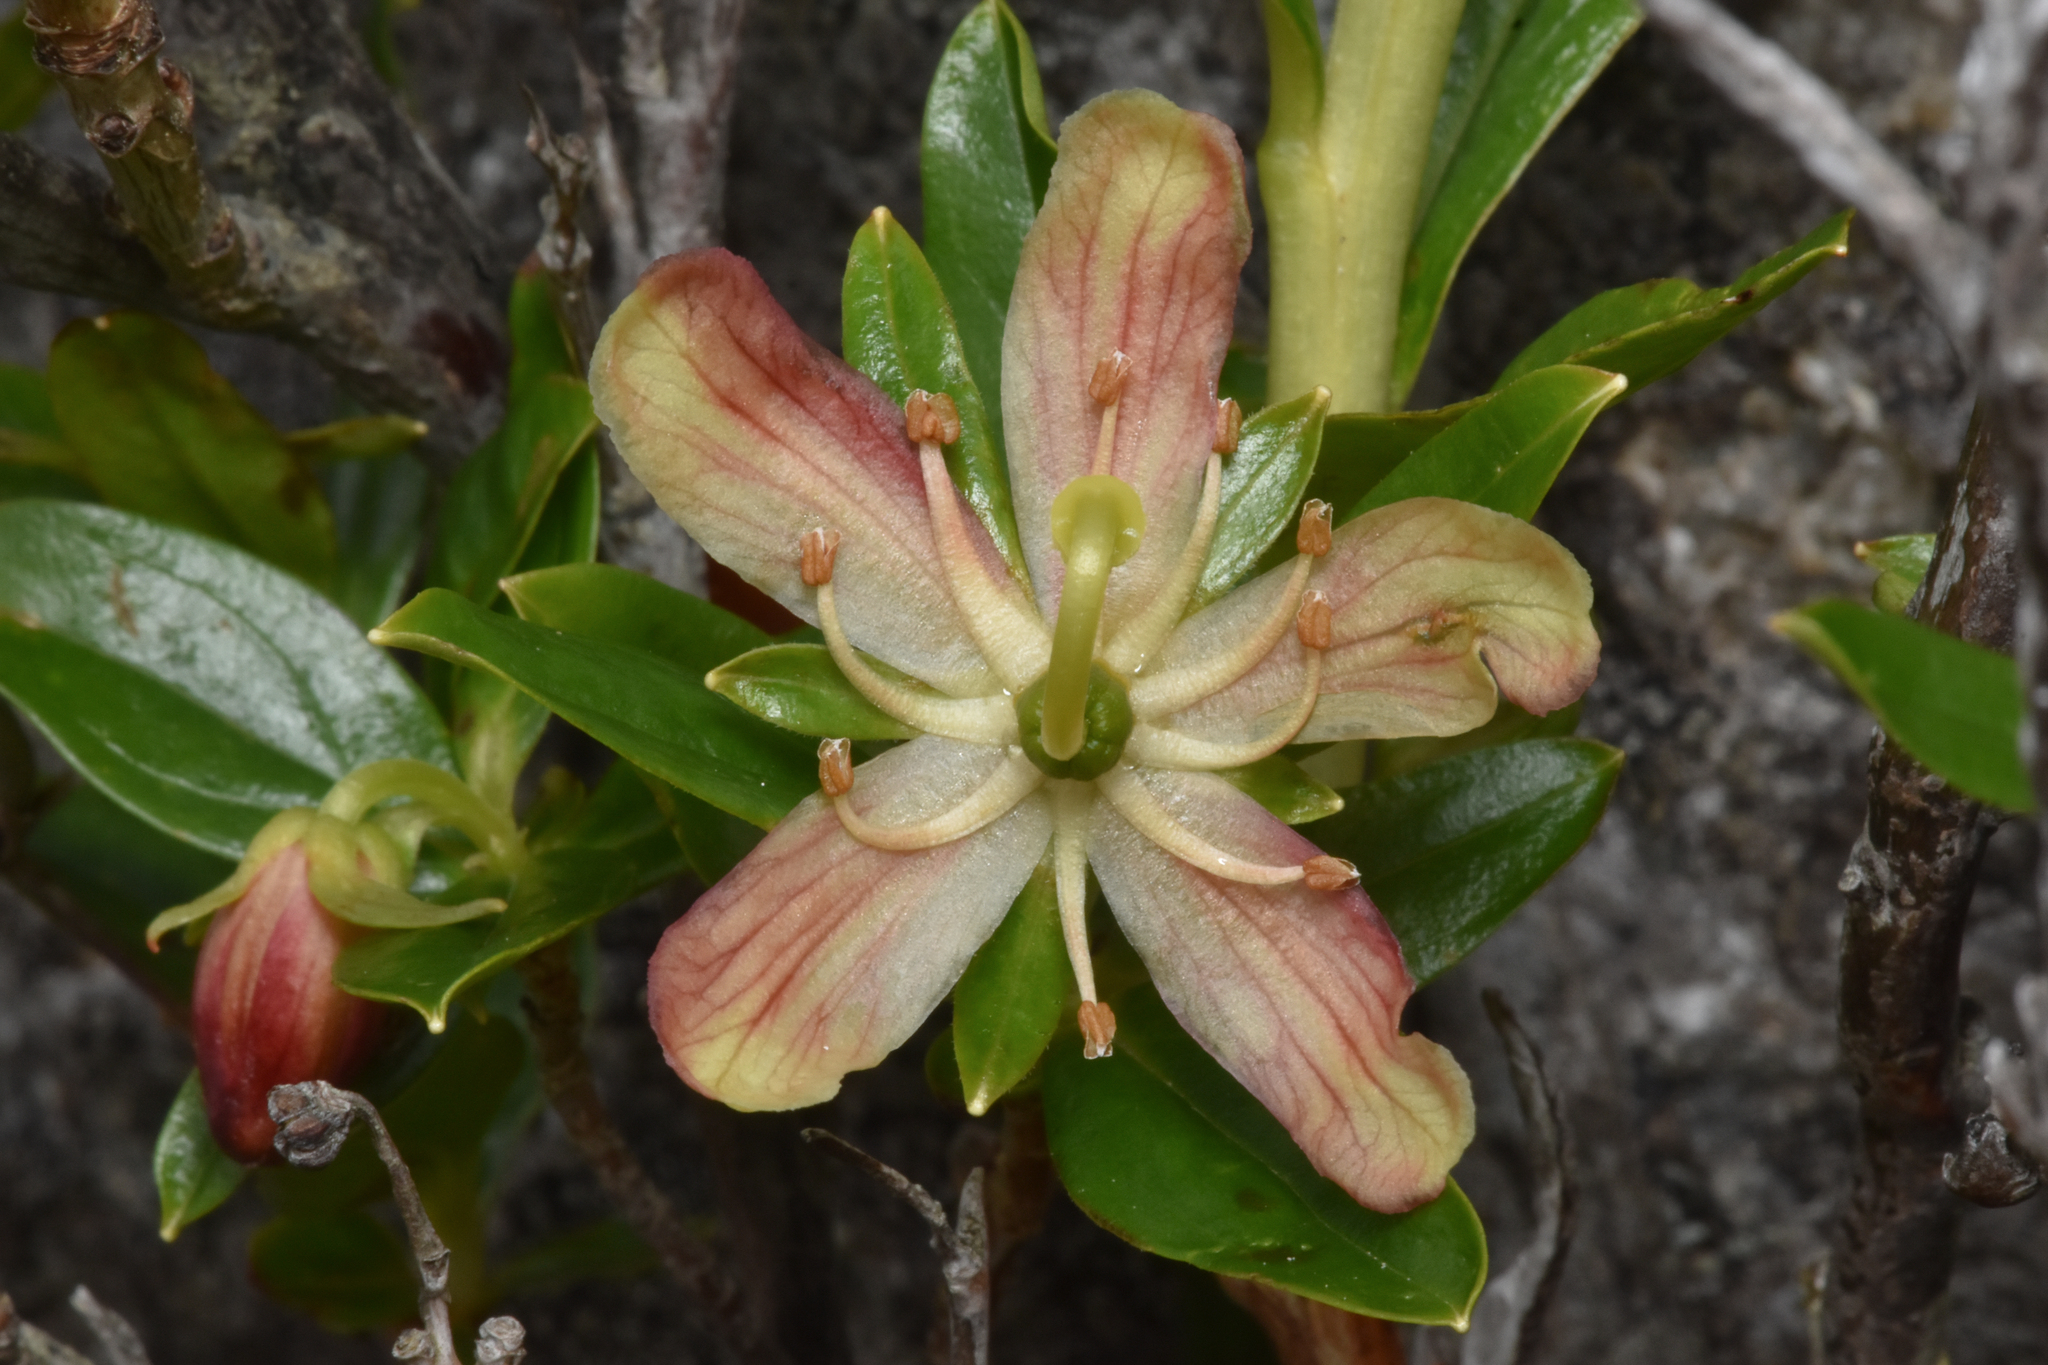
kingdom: Plantae
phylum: Tracheophyta
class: Magnoliopsida
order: Ericales
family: Ericaceae
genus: Elliottia
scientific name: Elliottia pyroliflora
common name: Copperbush
